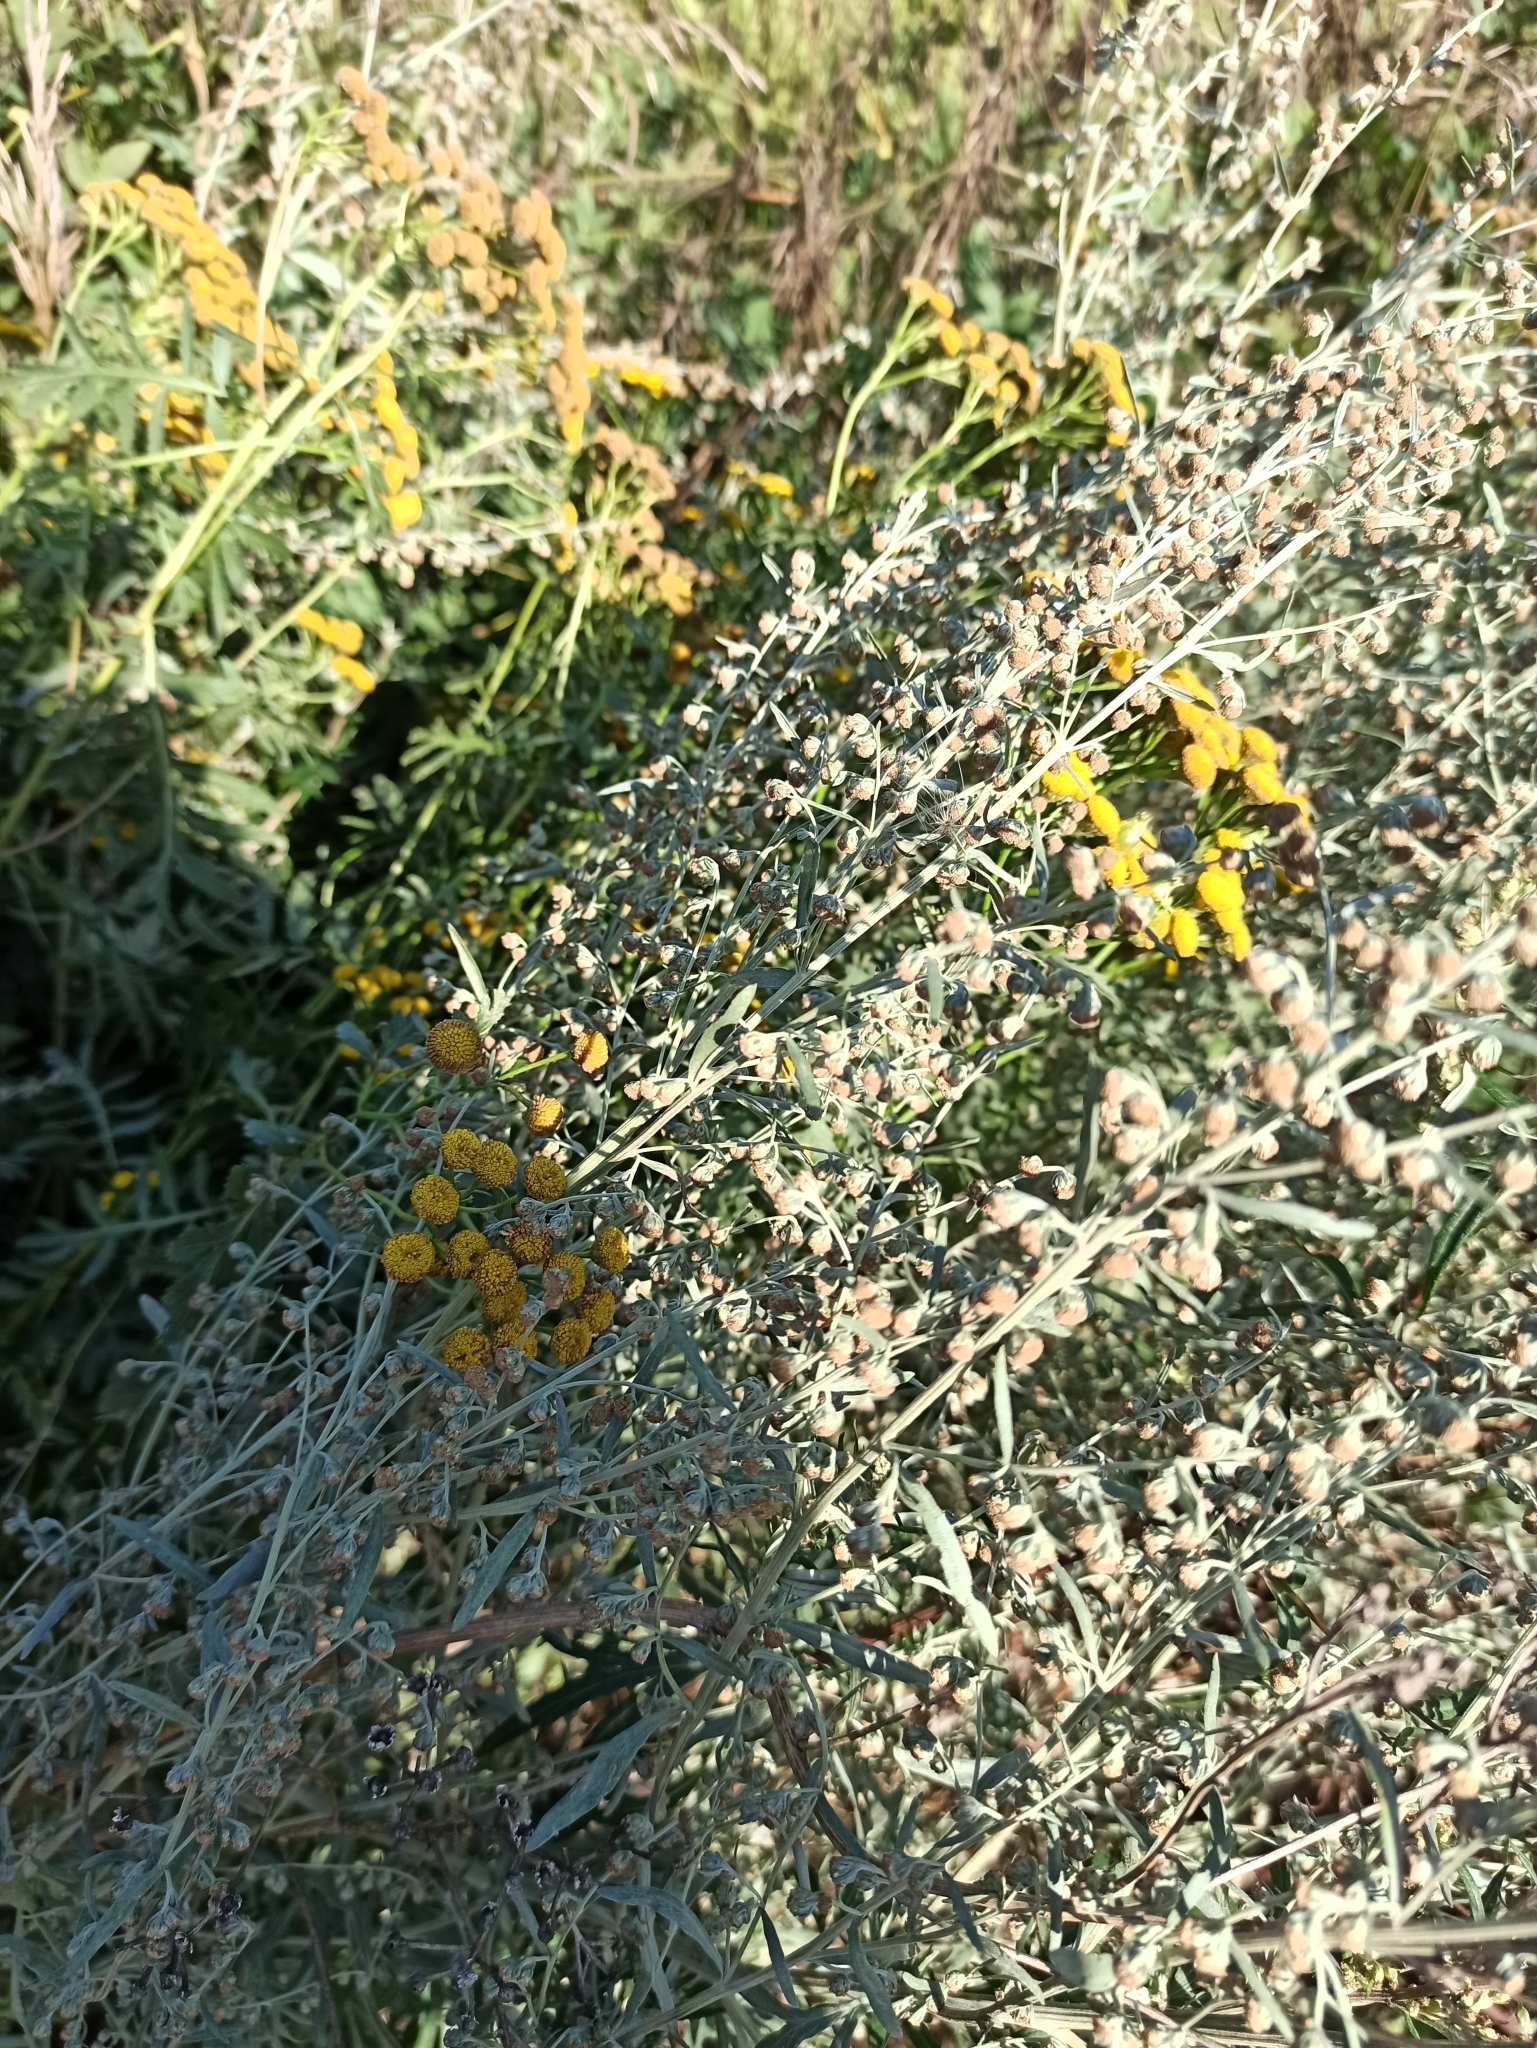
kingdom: Plantae
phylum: Tracheophyta
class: Magnoliopsida
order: Asterales
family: Asteraceae
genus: Artemisia
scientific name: Artemisia absinthium
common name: Wormwood
